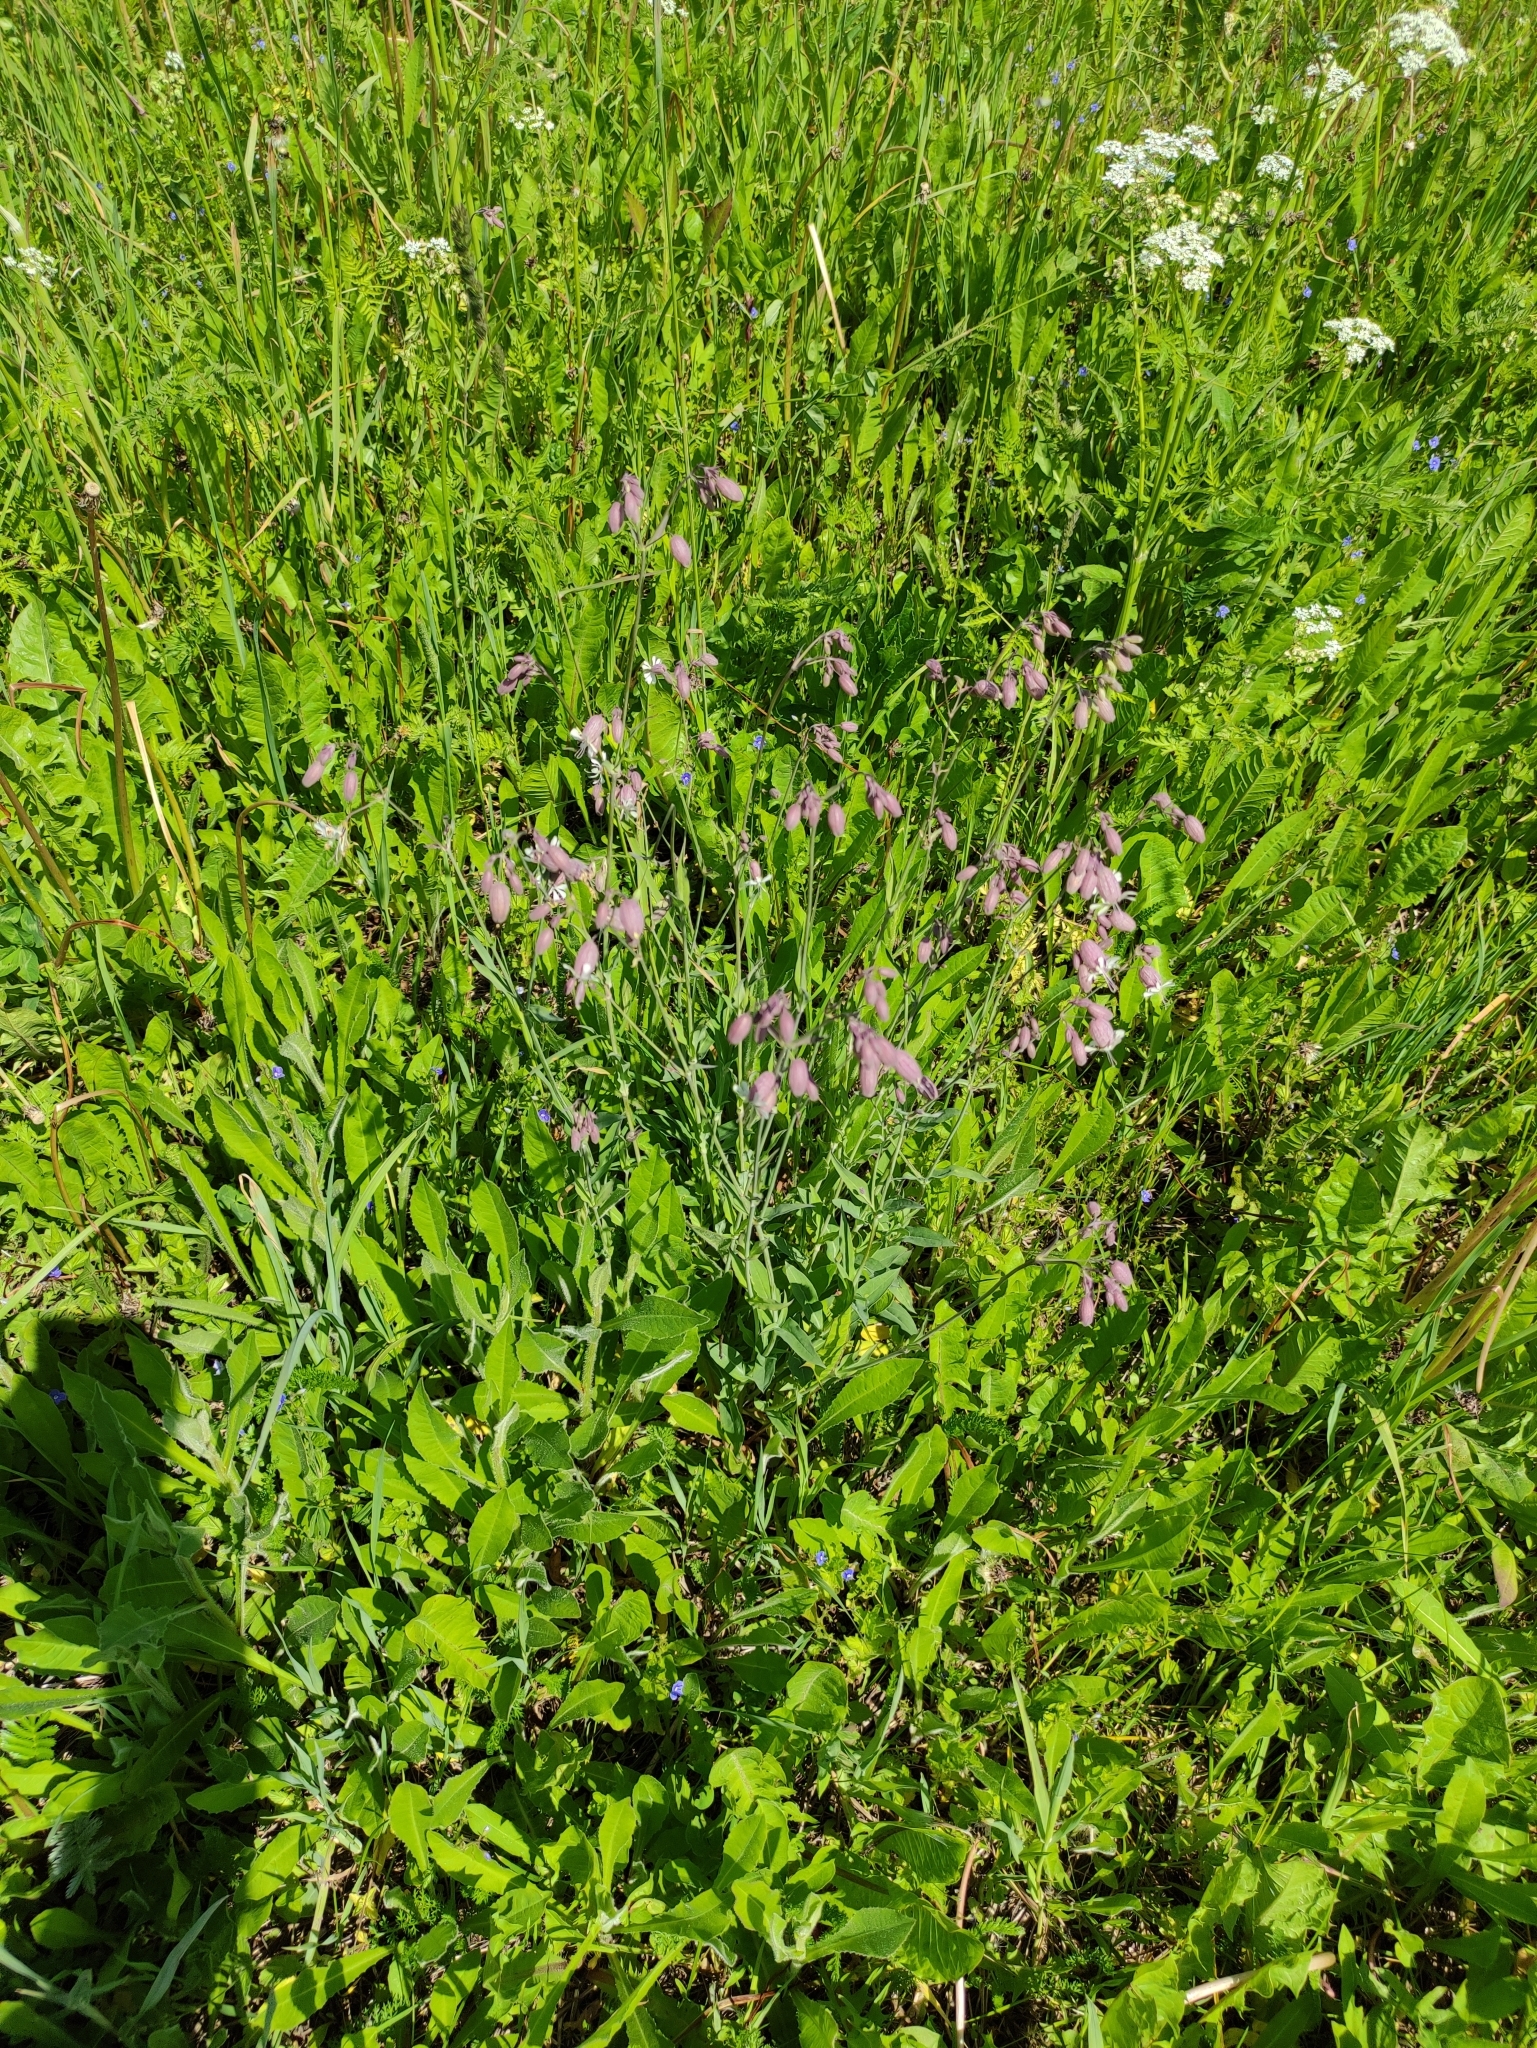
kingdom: Plantae
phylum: Tracheophyta
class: Magnoliopsida
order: Caryophyllales
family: Caryophyllaceae
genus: Silene
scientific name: Silene vulgaris
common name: Bladder campion
